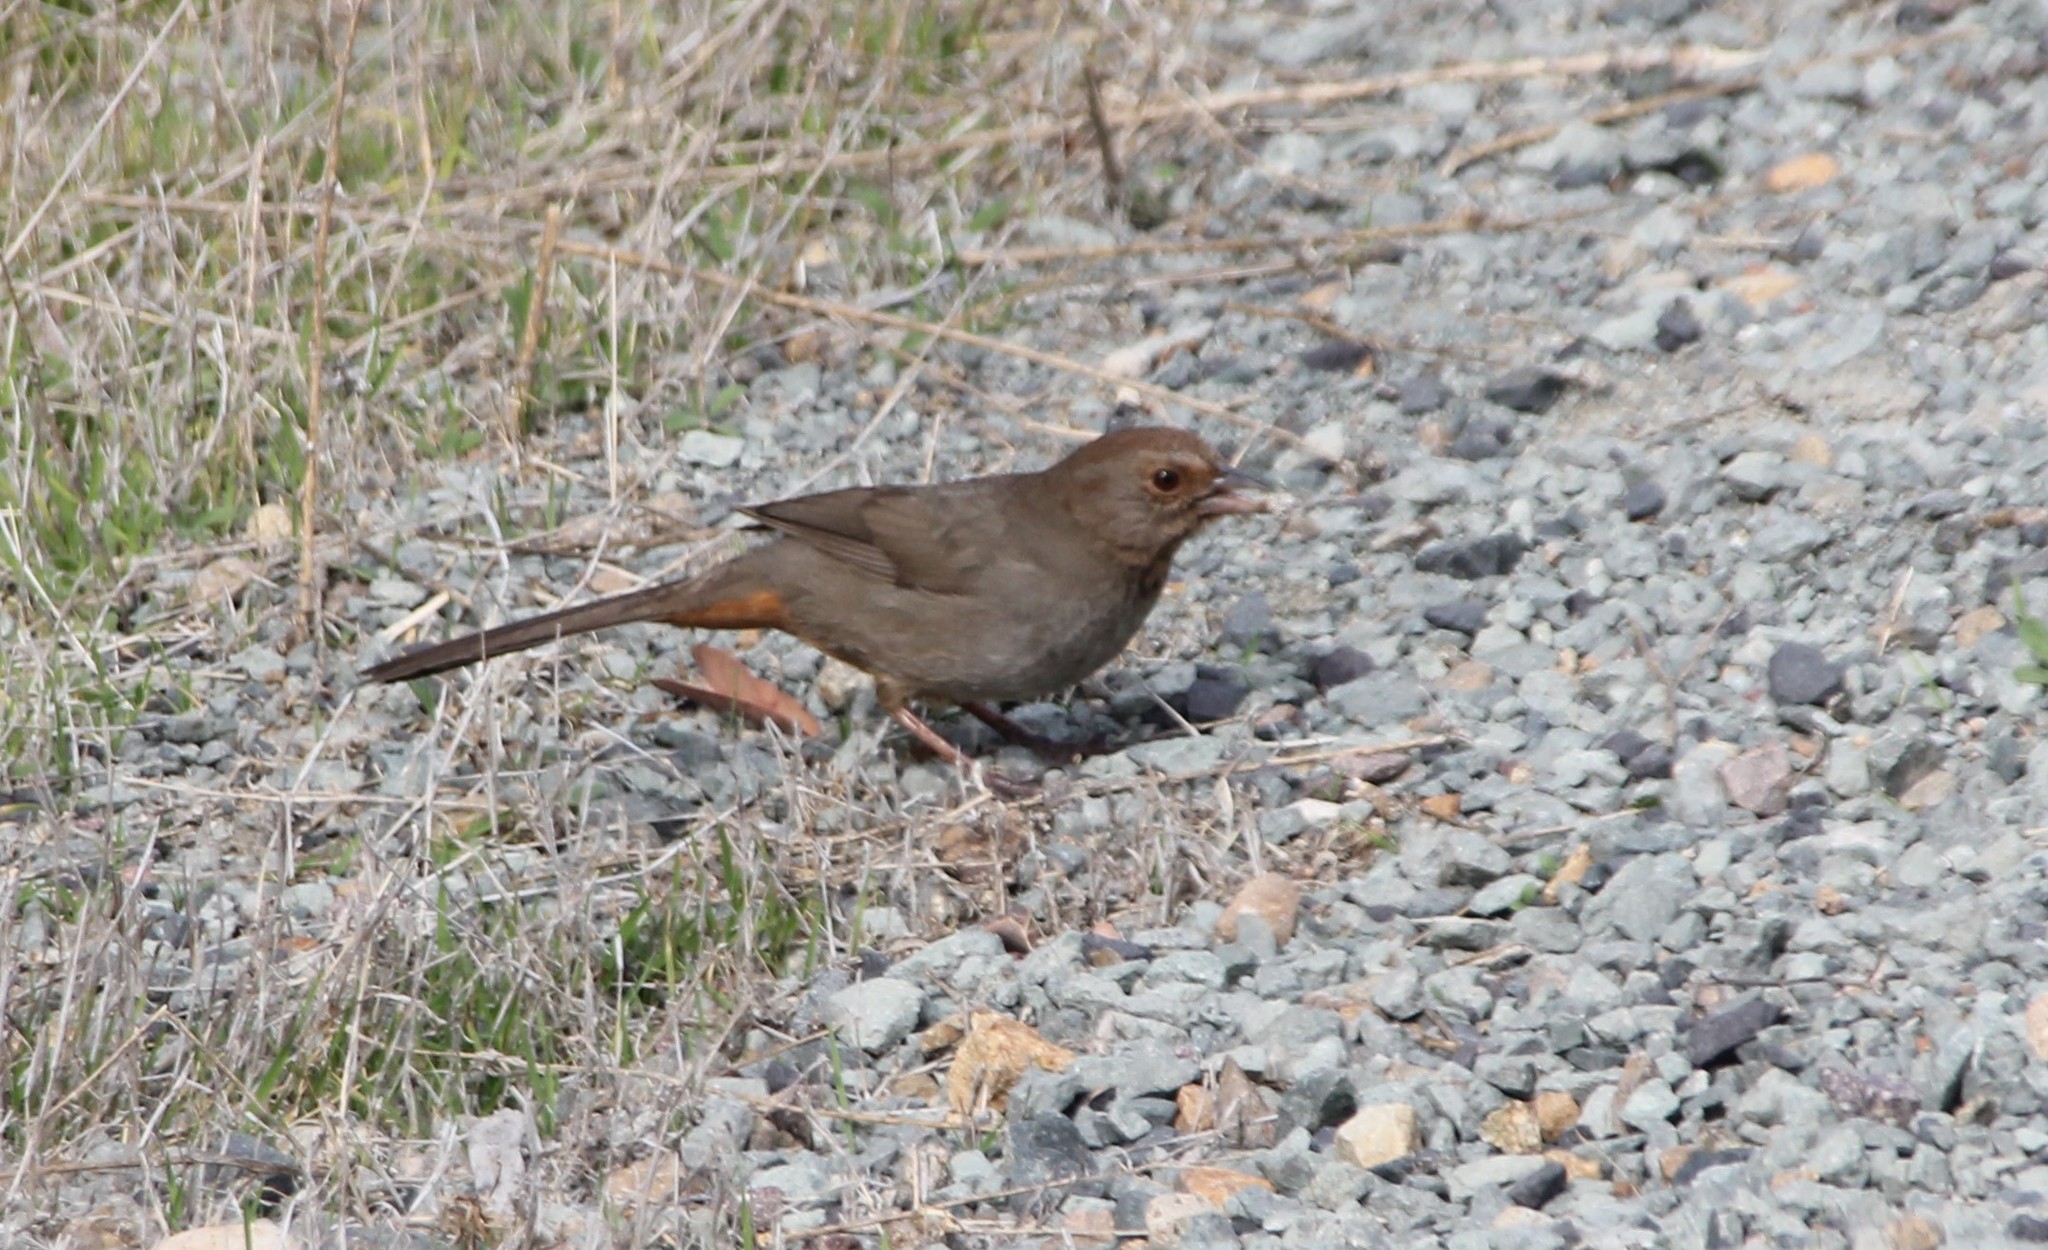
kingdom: Animalia
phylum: Chordata
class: Aves
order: Passeriformes
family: Passerellidae
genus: Melozone
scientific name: Melozone crissalis
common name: California towhee
